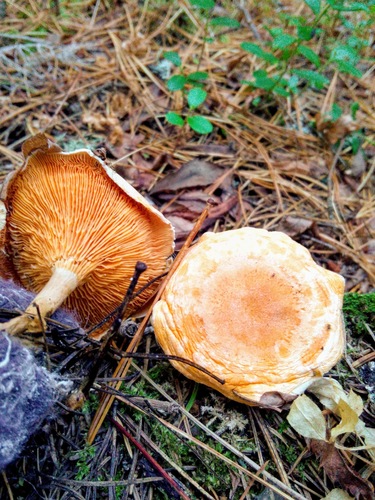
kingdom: Fungi
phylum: Basidiomycota
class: Agaricomycetes
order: Boletales
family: Hygrophoropsidaceae
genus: Hygrophoropsis
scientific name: Hygrophoropsis aurantiaca
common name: False chanterelle
